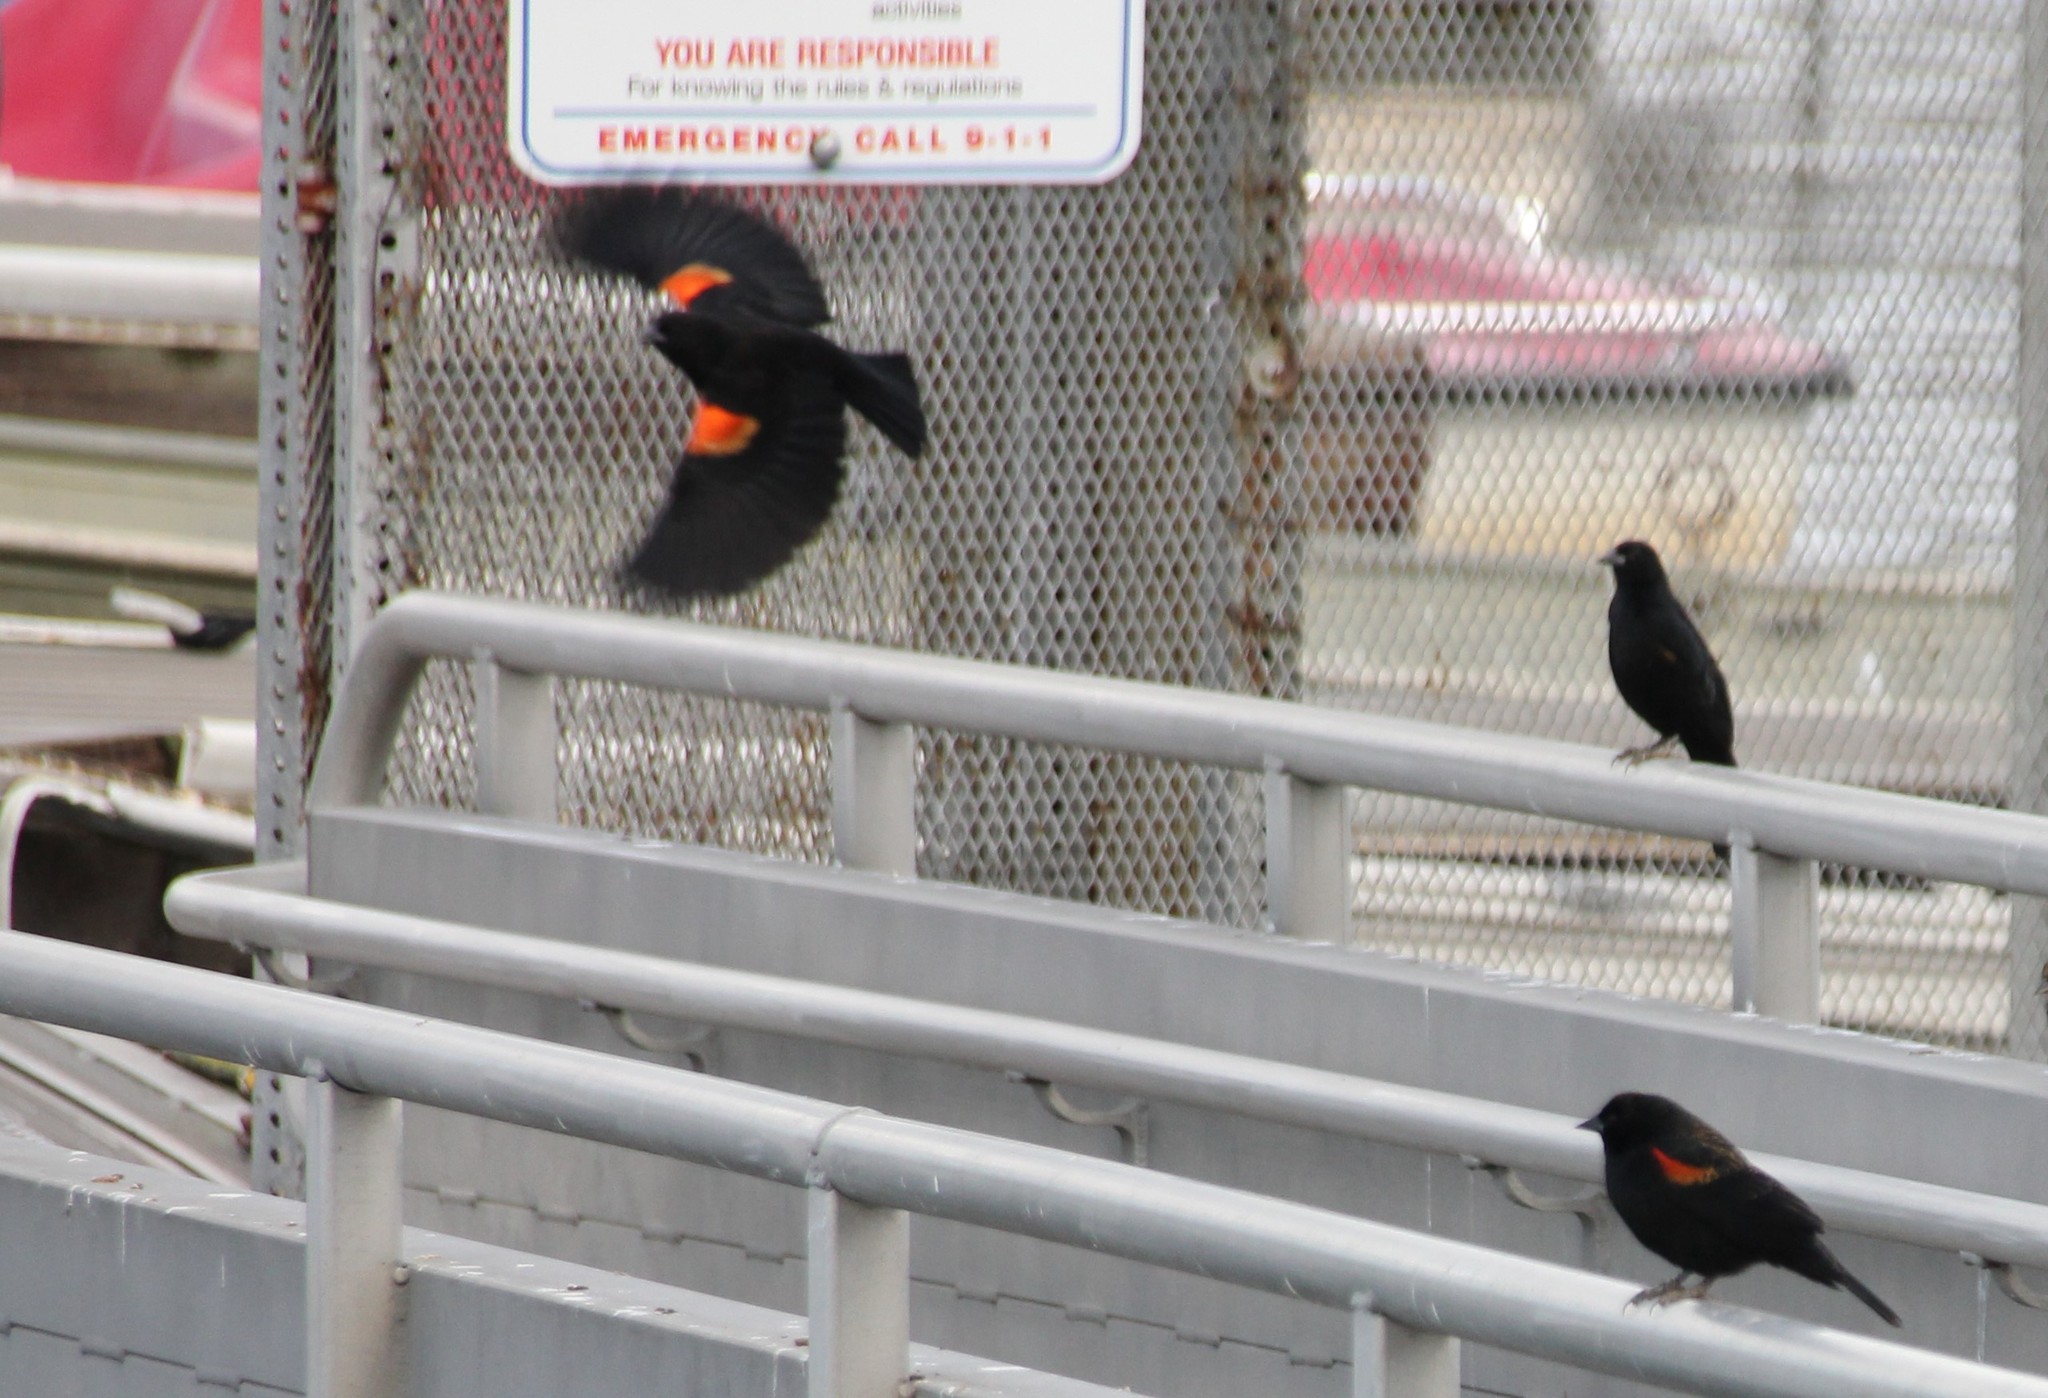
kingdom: Animalia
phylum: Chordata
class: Aves
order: Passeriformes
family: Icteridae
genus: Agelaius
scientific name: Agelaius phoeniceus
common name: Red-winged blackbird
